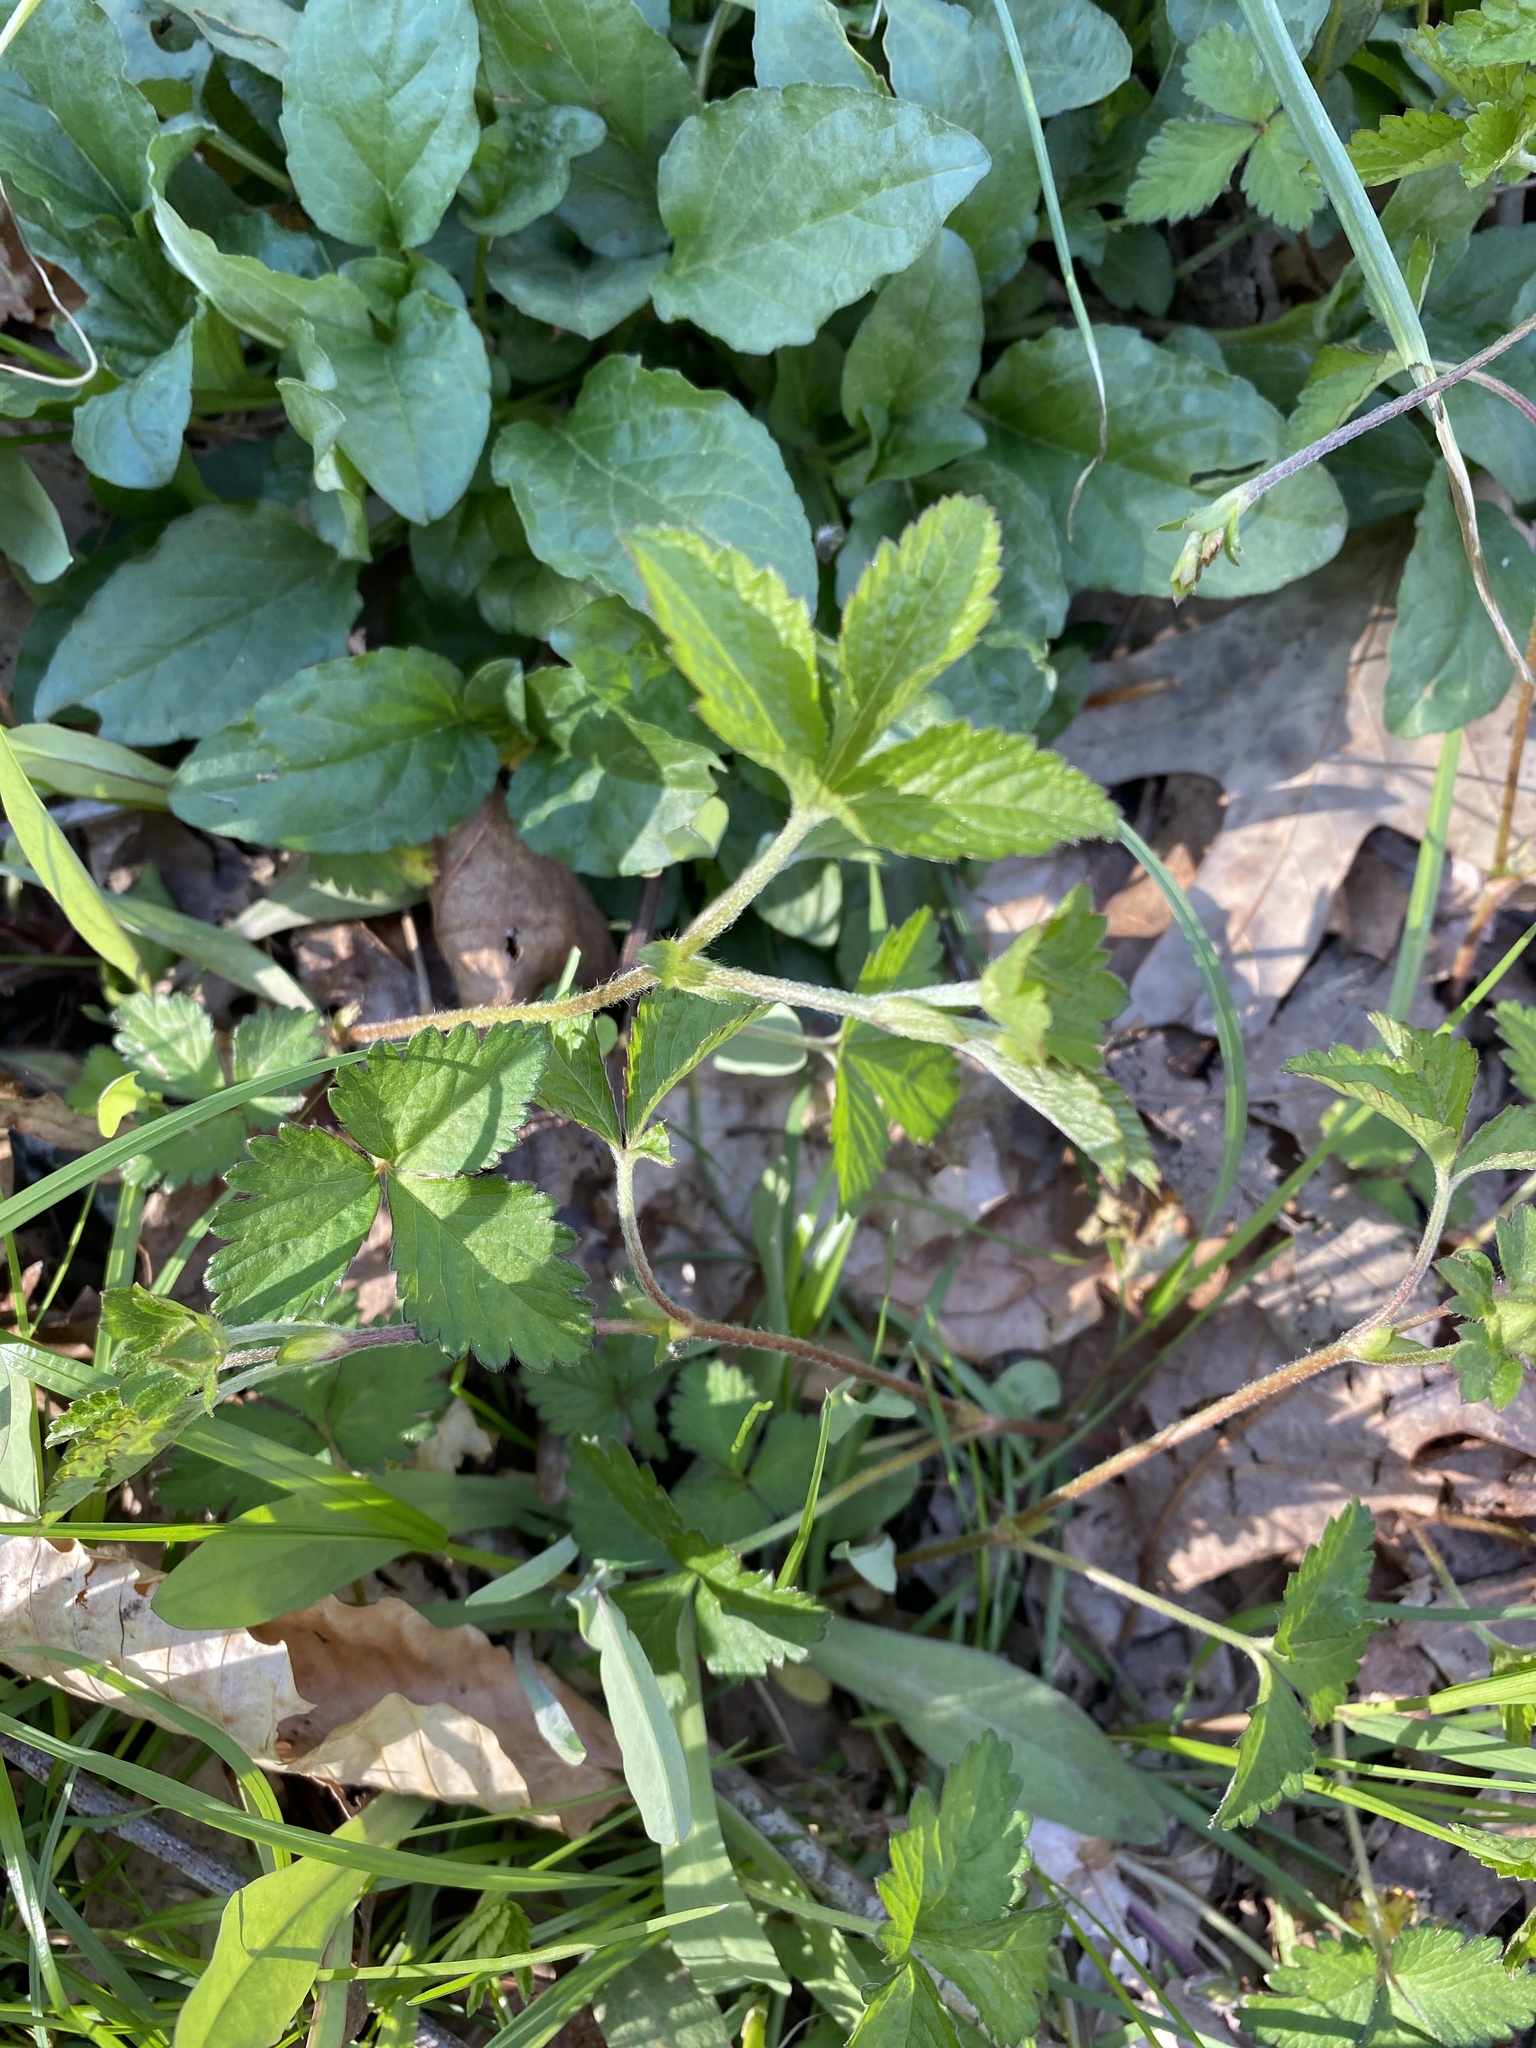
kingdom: Plantae
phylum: Tracheophyta
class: Magnoliopsida
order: Rosales
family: Rosaceae
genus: Potentilla
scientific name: Potentilla indica
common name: Yellow-flowered strawberry
